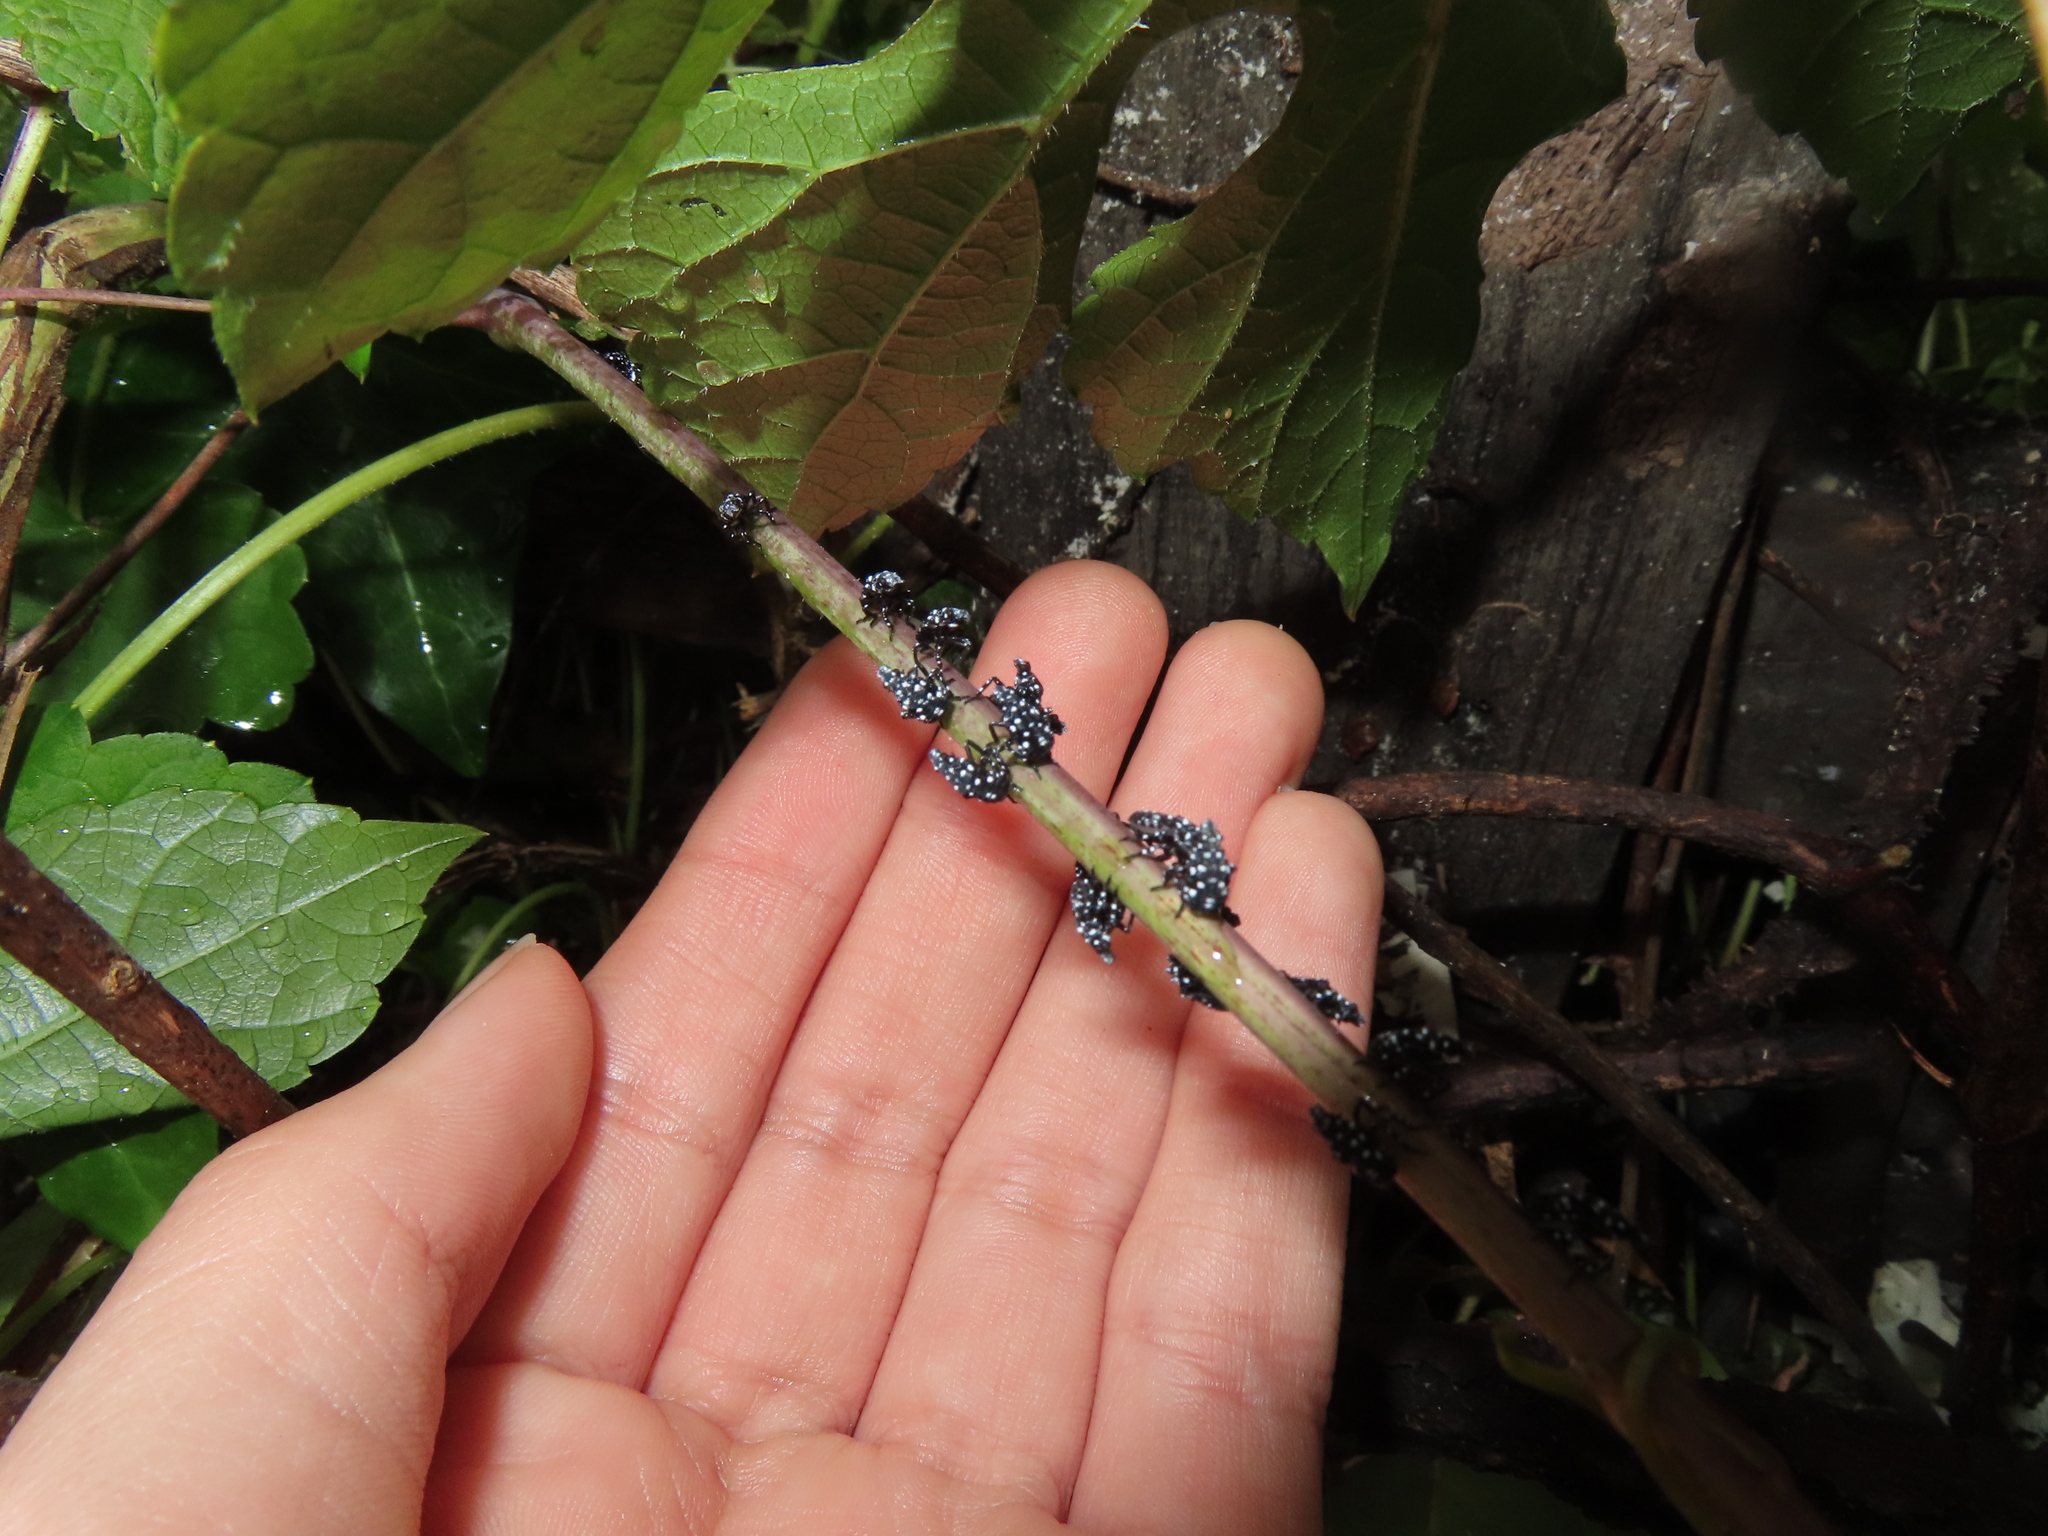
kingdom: Animalia
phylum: Arthropoda
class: Insecta
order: Hemiptera
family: Fulgoridae
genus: Lycorma
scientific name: Lycorma delicatula
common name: Spotted lanternfly
